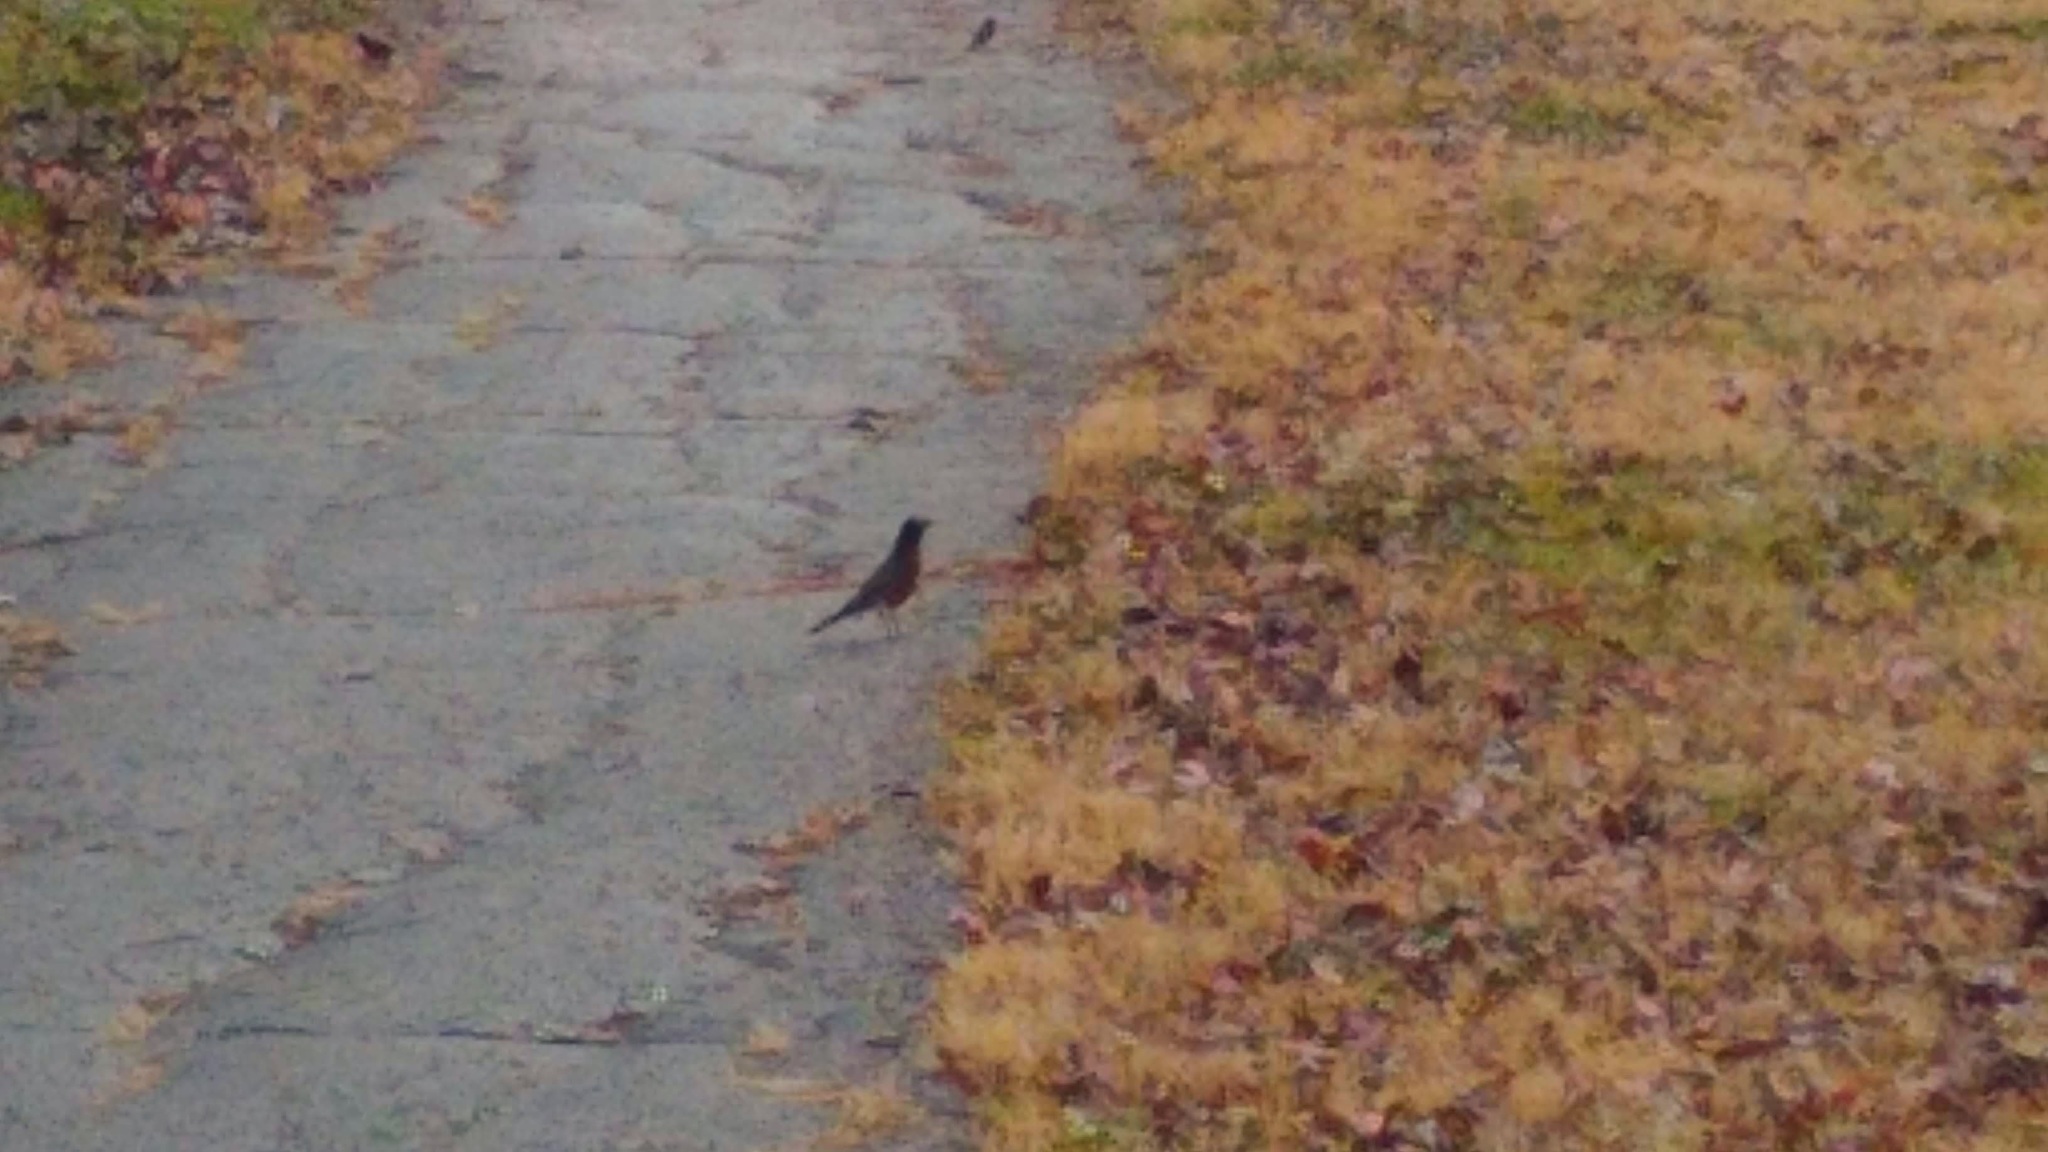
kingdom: Animalia
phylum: Chordata
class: Aves
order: Passeriformes
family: Turdidae
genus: Turdus
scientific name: Turdus migratorius
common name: American robin
